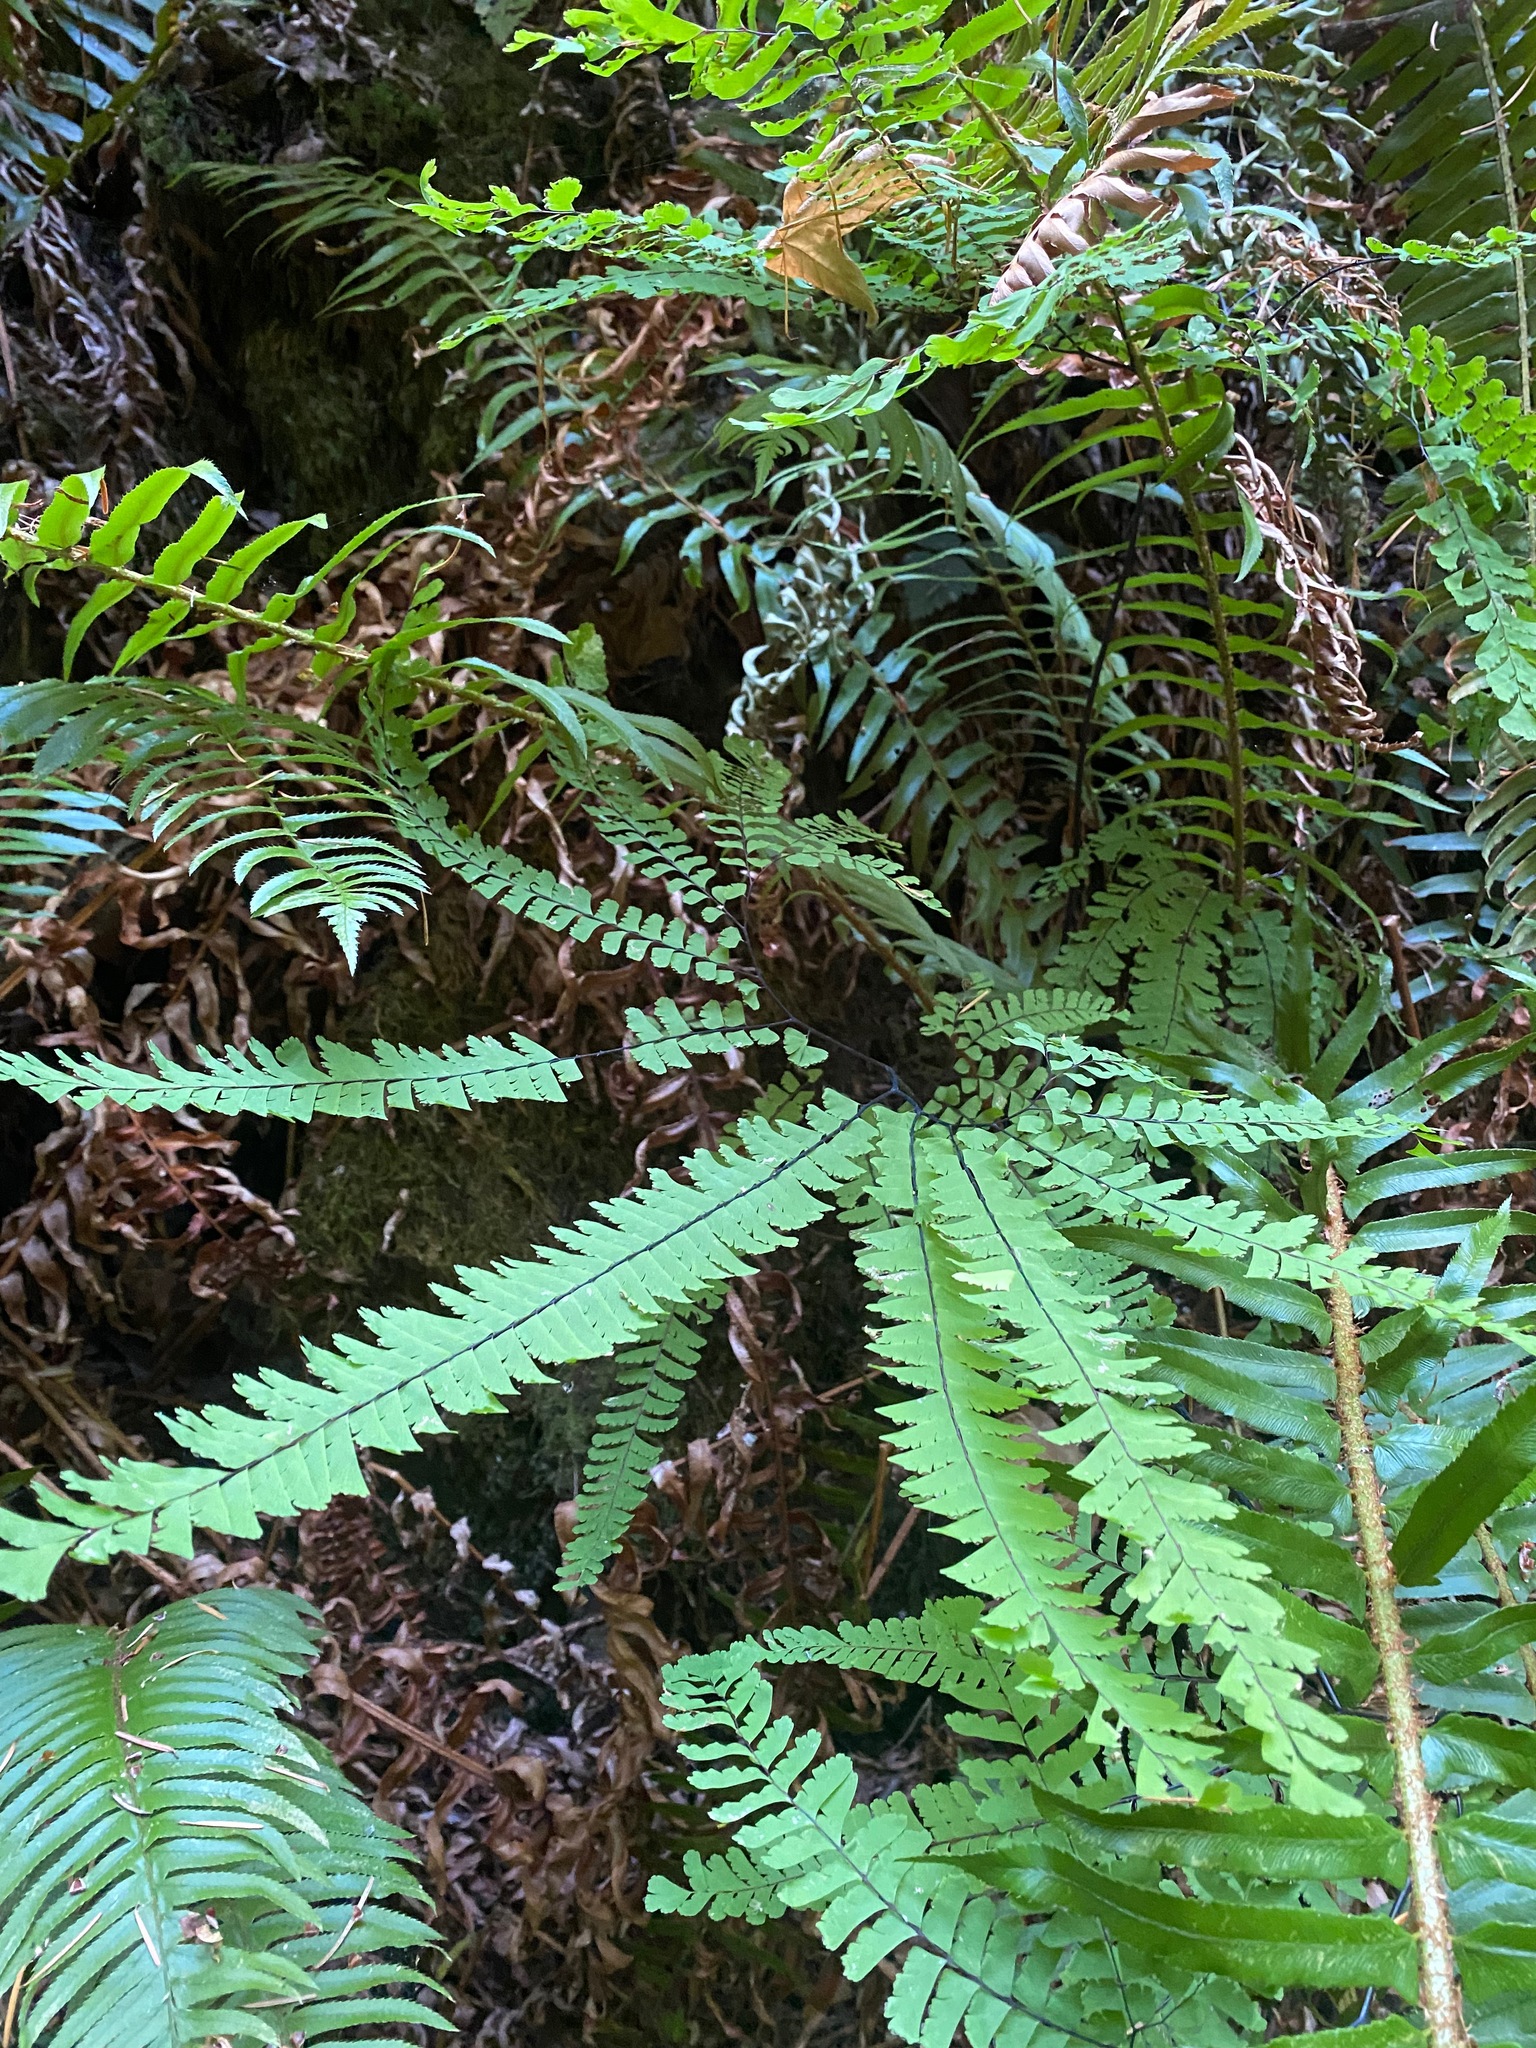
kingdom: Plantae
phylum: Tracheophyta
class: Polypodiopsida
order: Polypodiales
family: Pteridaceae
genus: Adiantum
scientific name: Adiantum aleuticum
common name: Aleutian maidenhair fern
